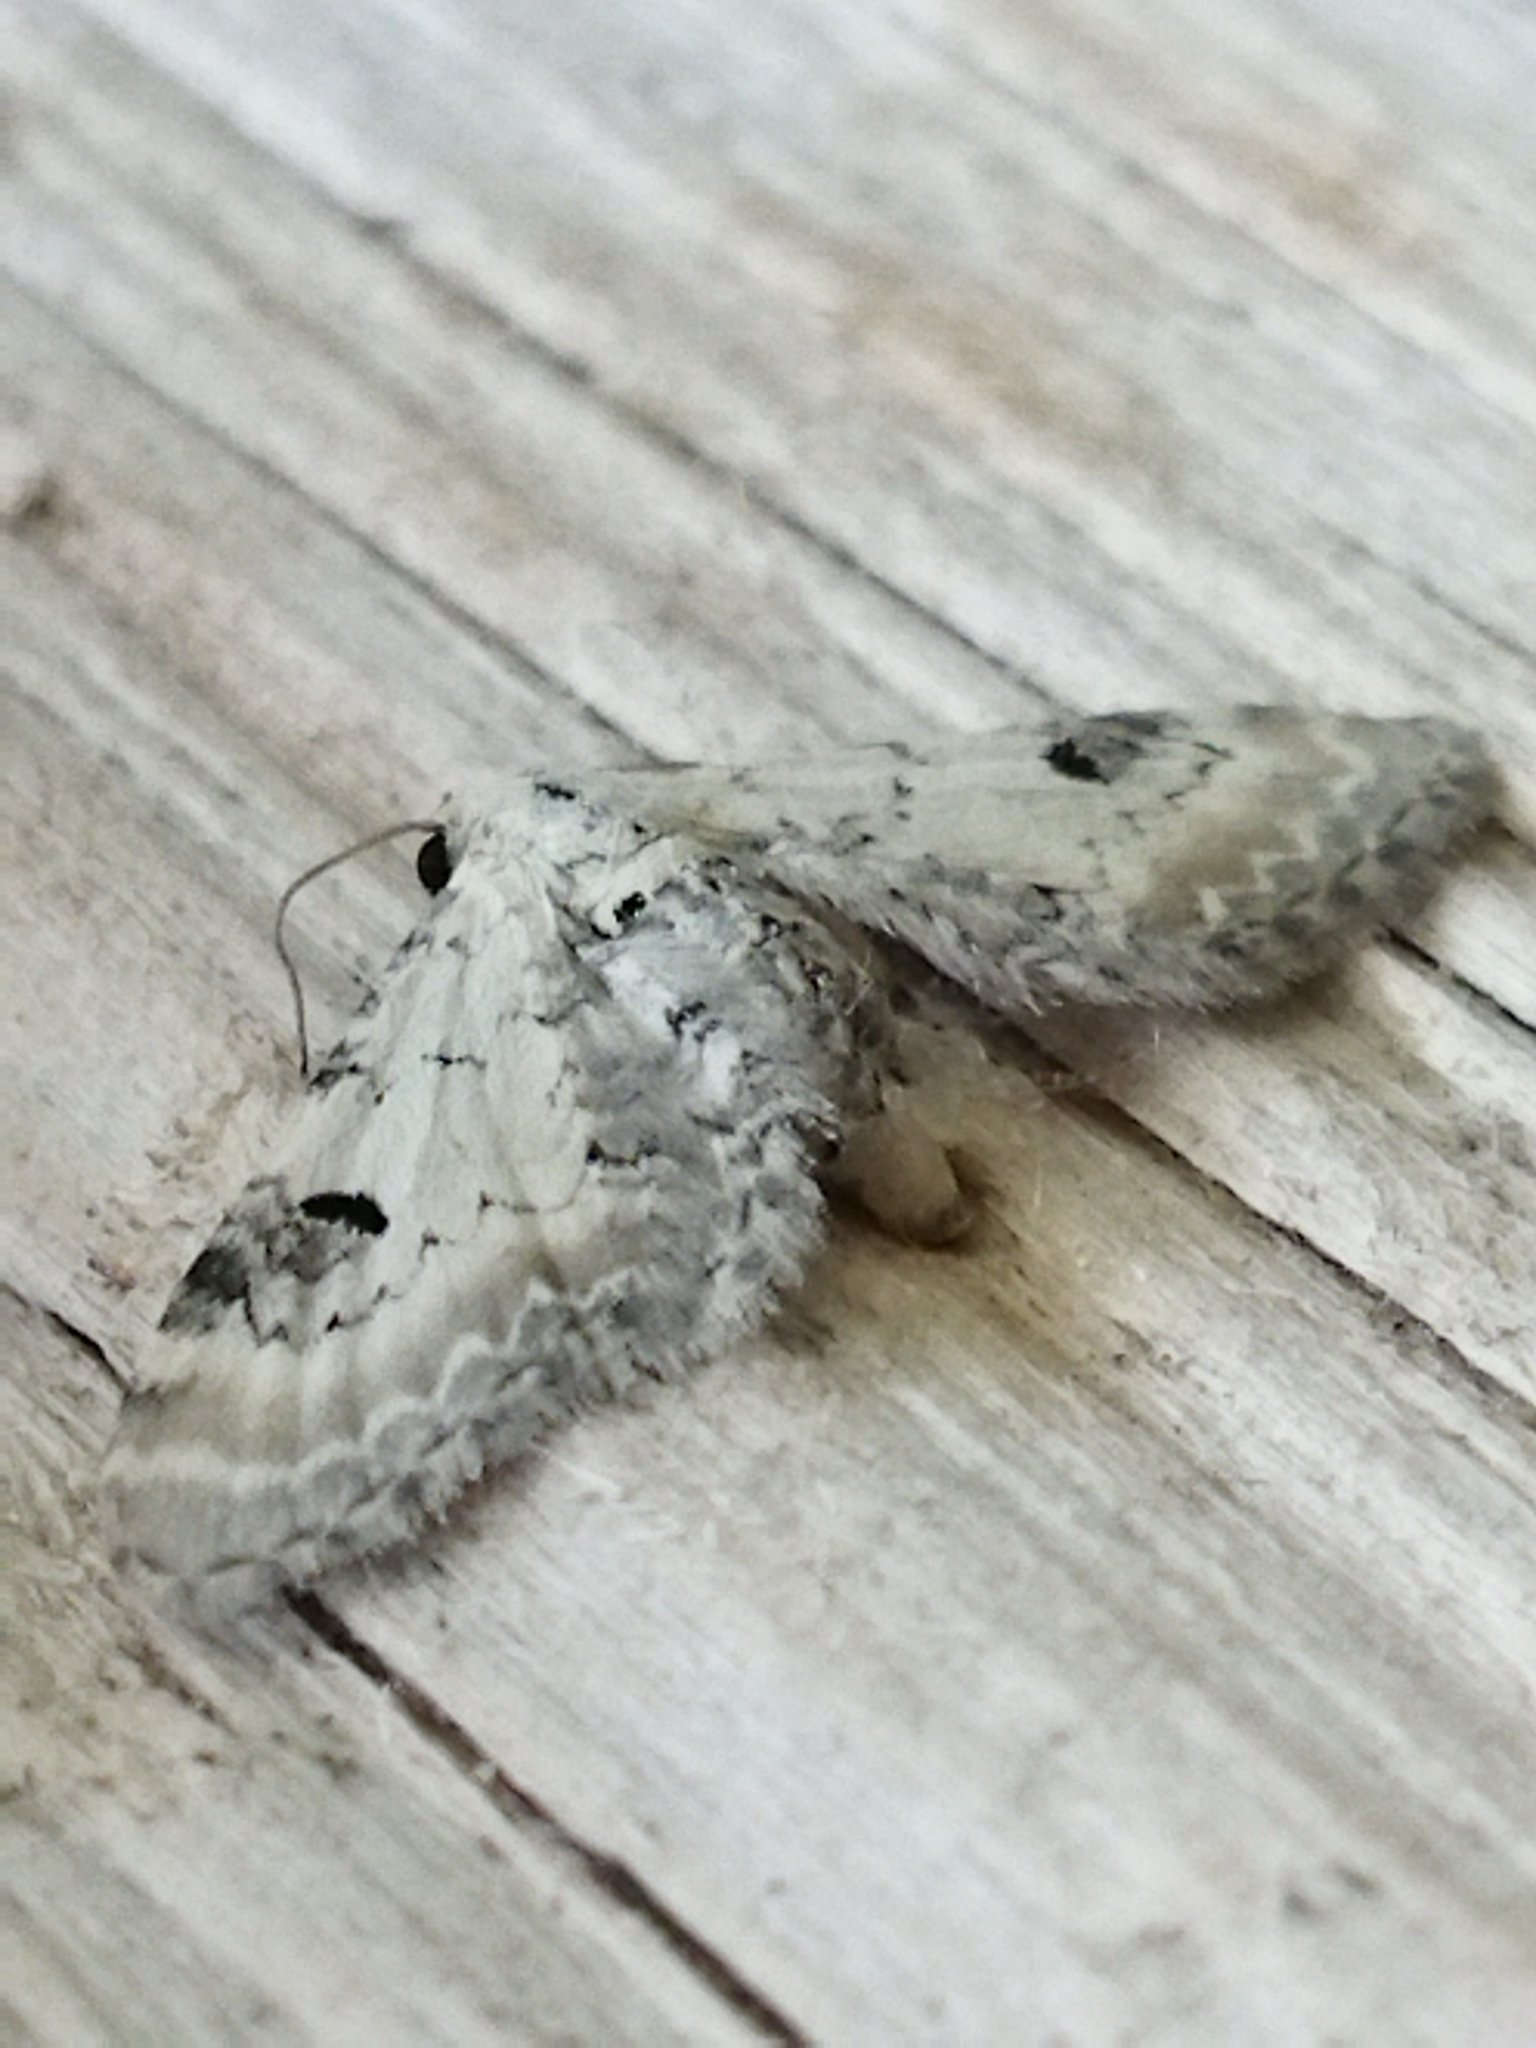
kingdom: Animalia
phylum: Arthropoda
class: Insecta
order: Lepidoptera
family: Geometridae
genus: Eupithecia
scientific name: Eupithecia centaureata
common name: Lime-speck pug
